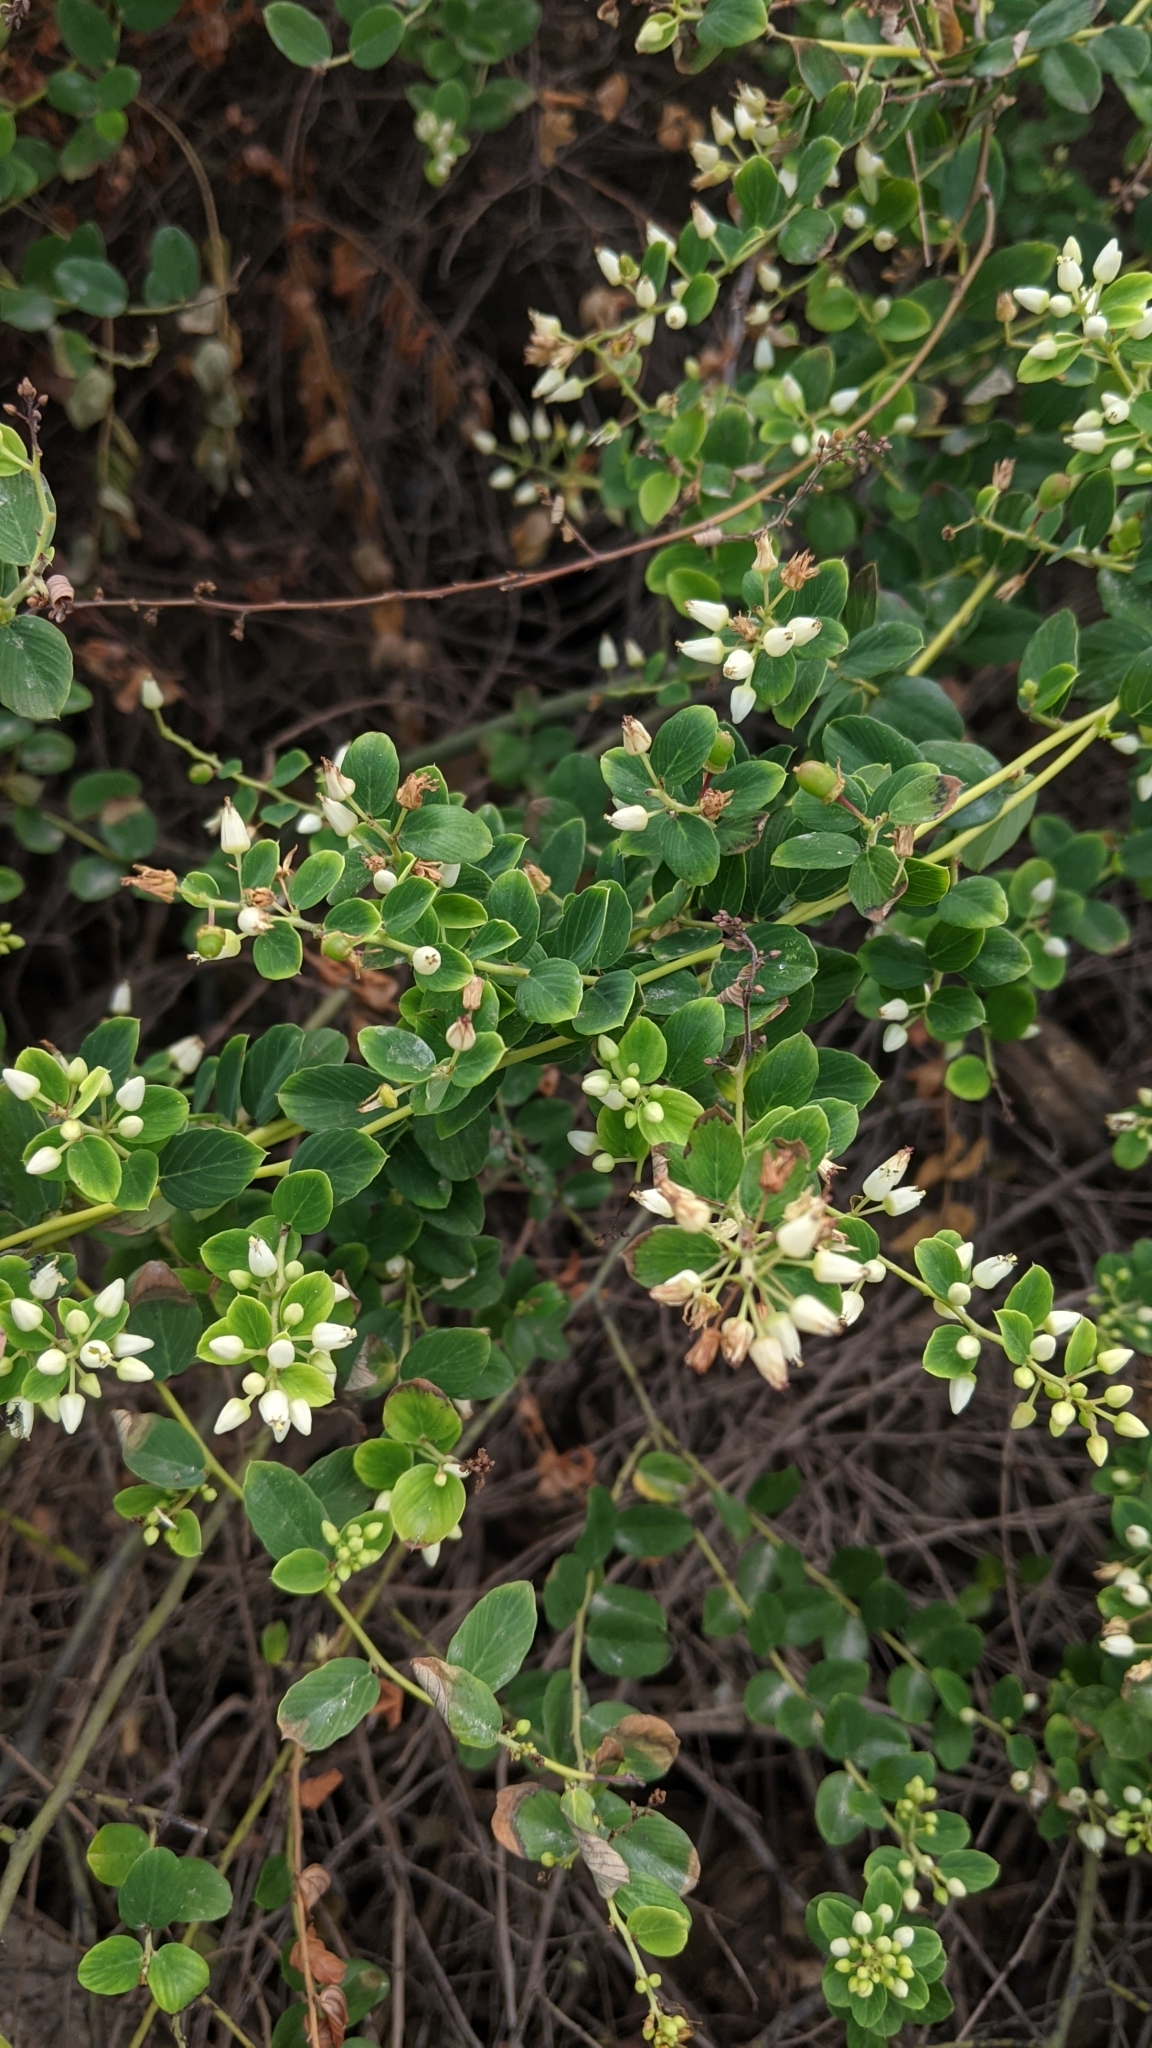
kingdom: Plantae
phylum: Tracheophyta
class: Magnoliopsida
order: Rosales
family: Rhamnaceae
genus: Berchemia
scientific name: Berchemia lineata
